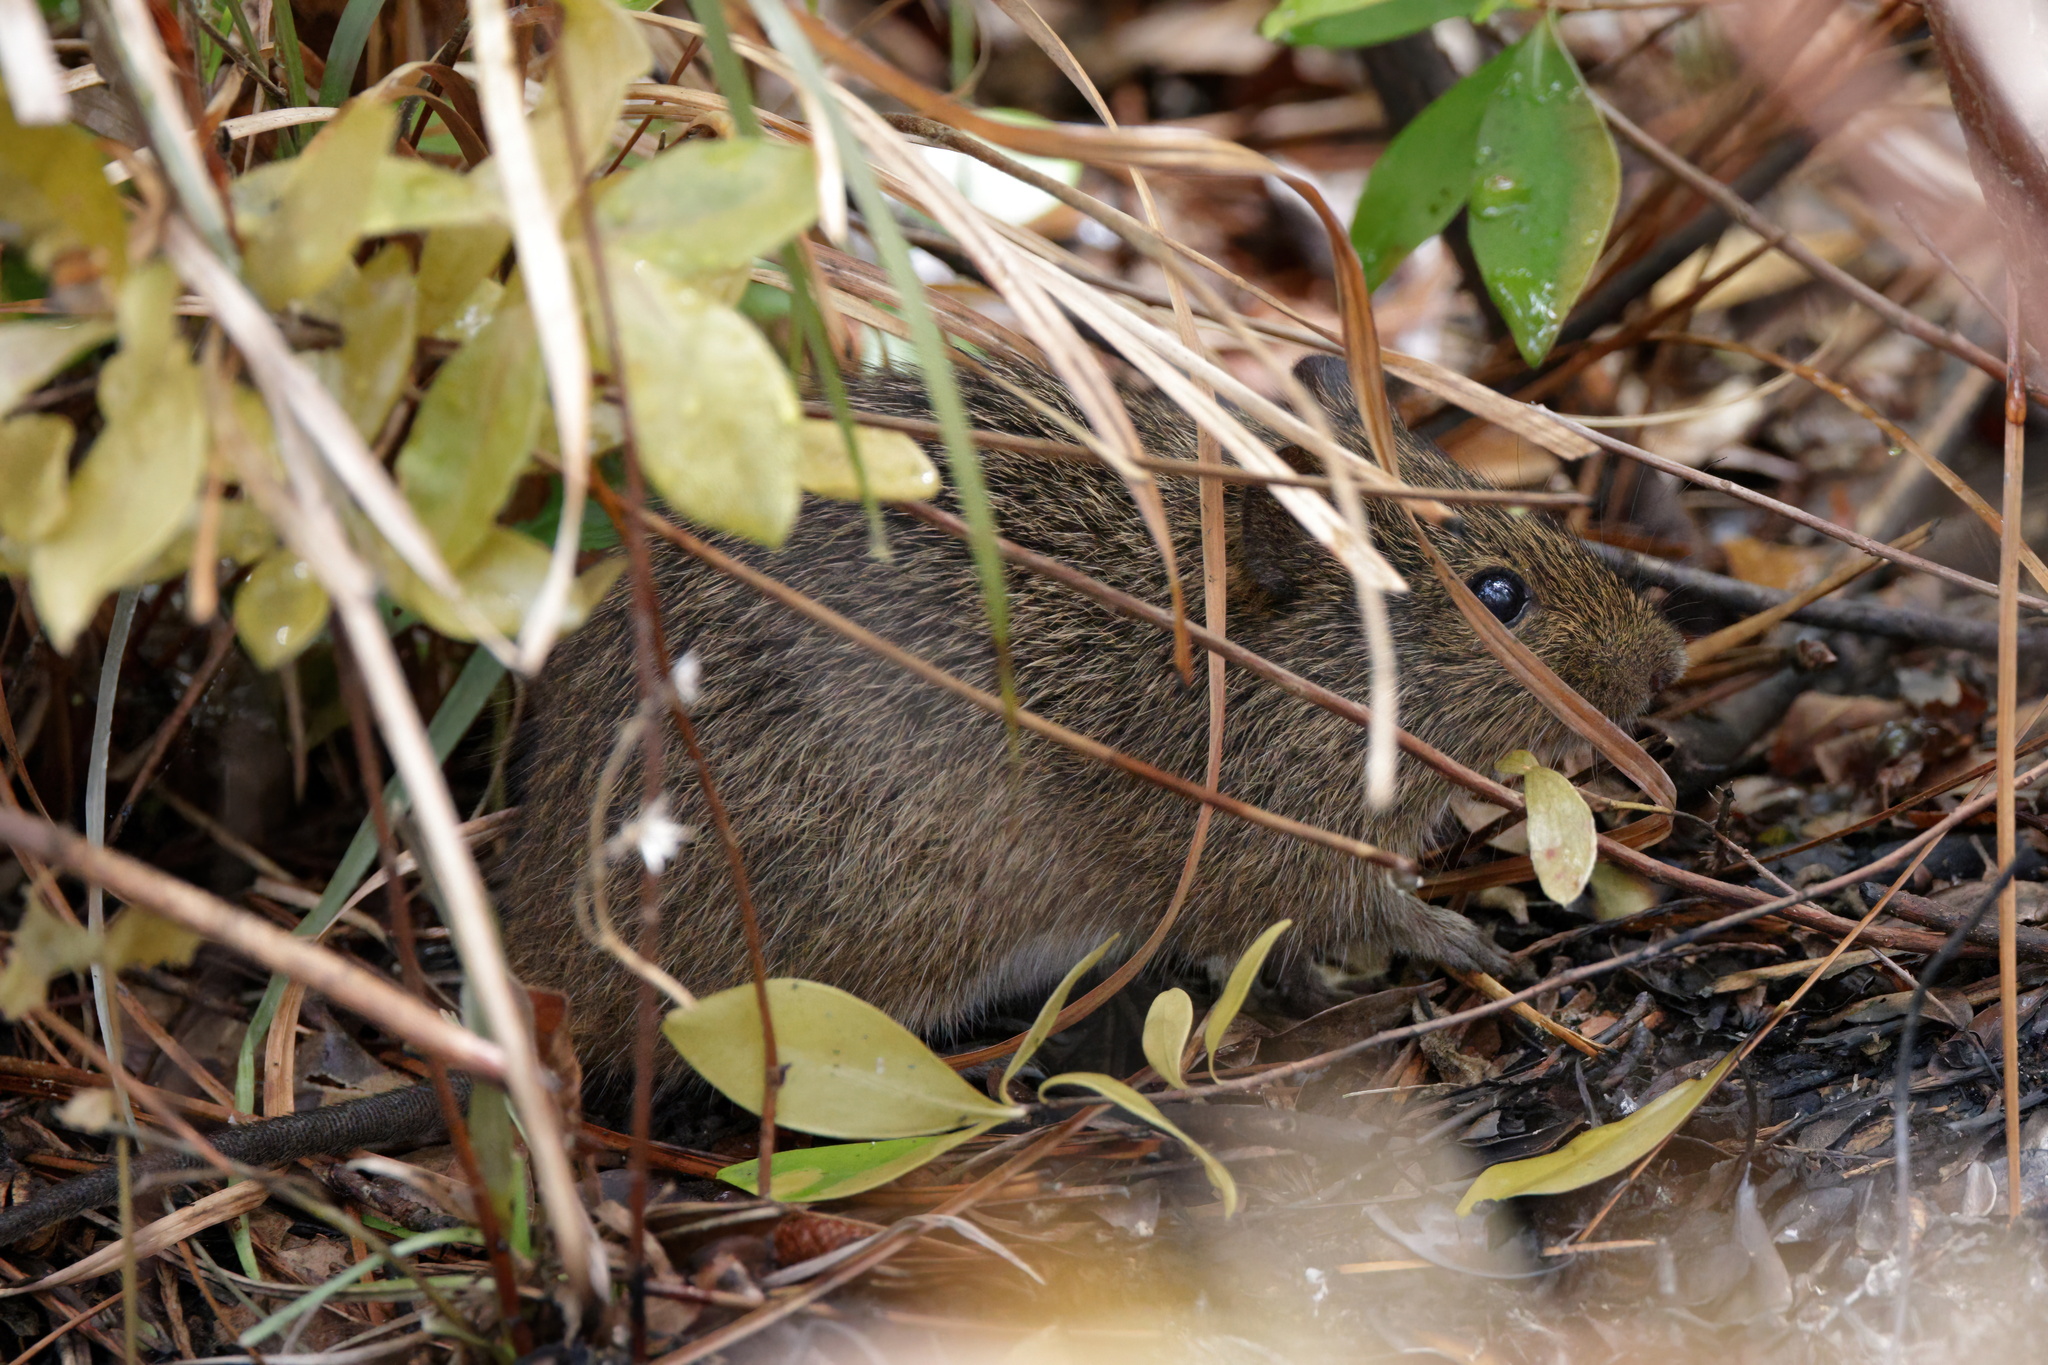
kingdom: Animalia
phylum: Chordata
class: Mammalia
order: Rodentia
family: Cricetidae
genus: Sigmodon
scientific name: Sigmodon hispidus
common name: Hispid cotton rat
